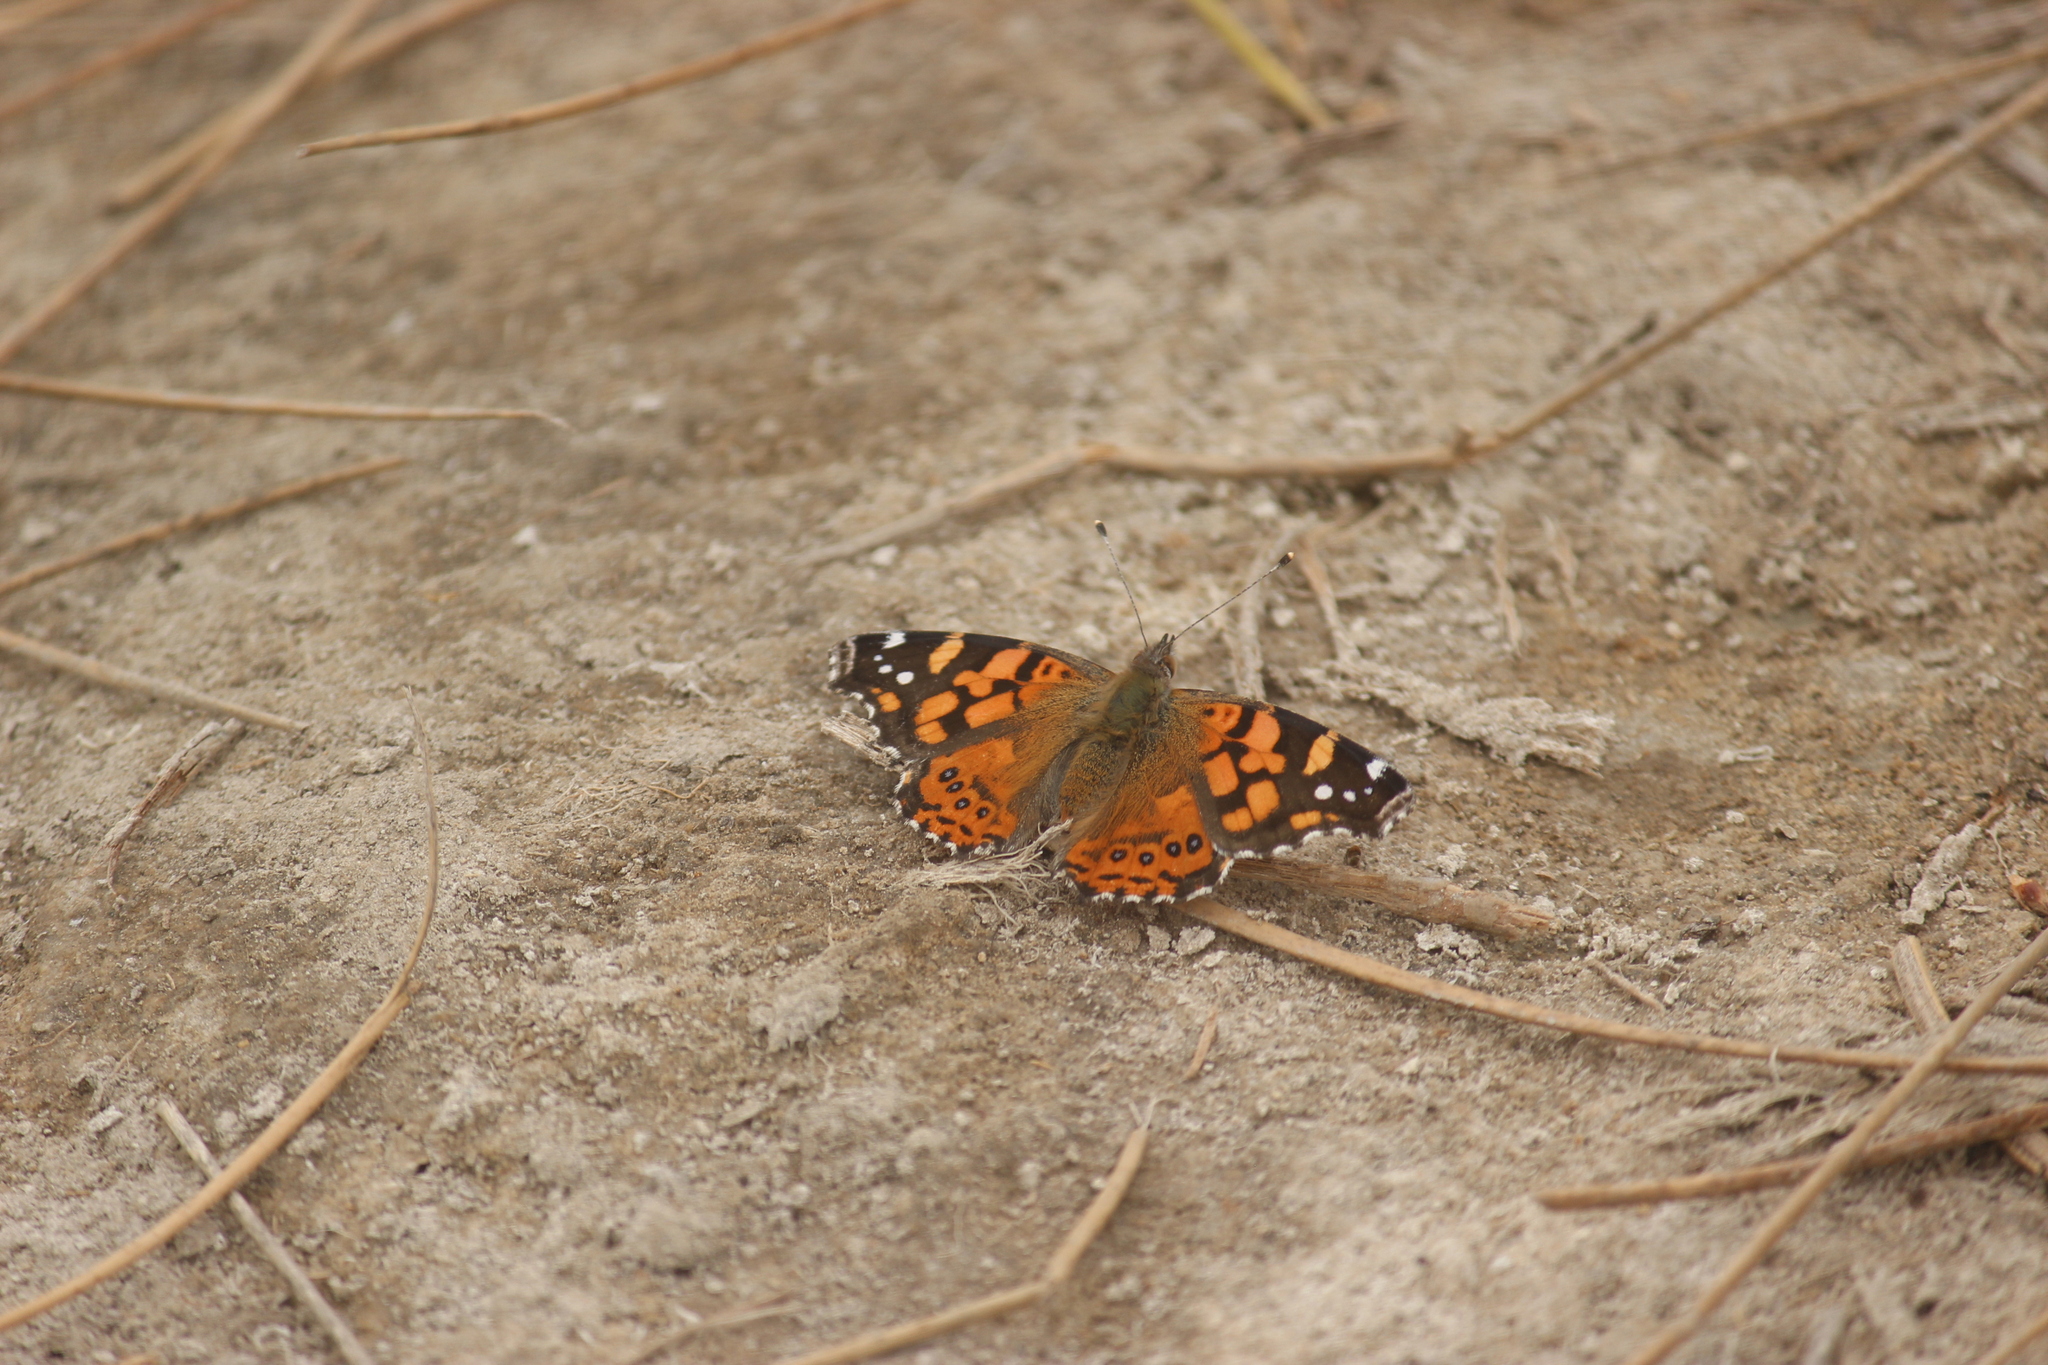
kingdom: Animalia
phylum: Arthropoda
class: Insecta
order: Lepidoptera
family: Nymphalidae
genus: Vanessa
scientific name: Vanessa carye
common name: Subtropical lady
